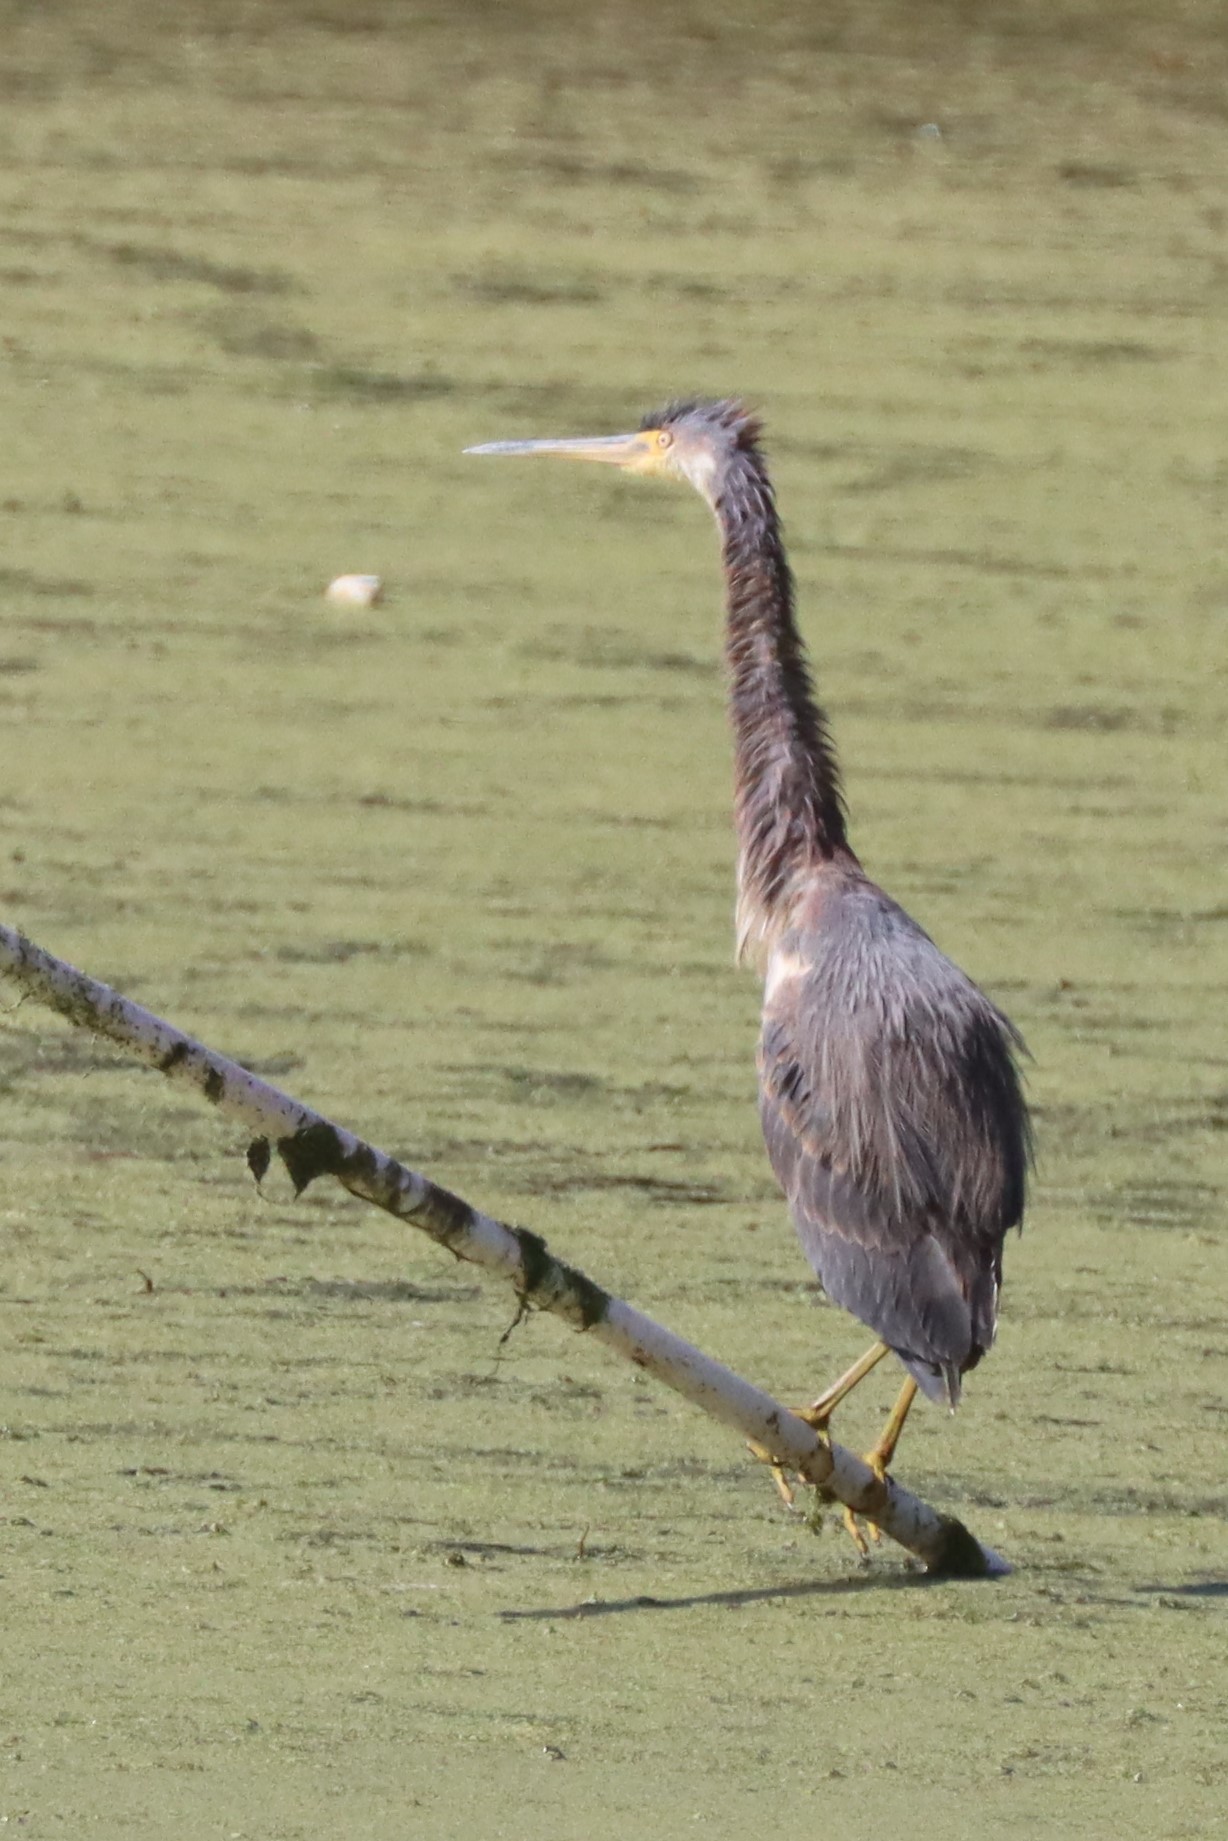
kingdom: Animalia
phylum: Chordata
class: Aves
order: Pelecaniformes
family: Ardeidae
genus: Egretta
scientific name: Egretta tricolor
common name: Tricolored heron
